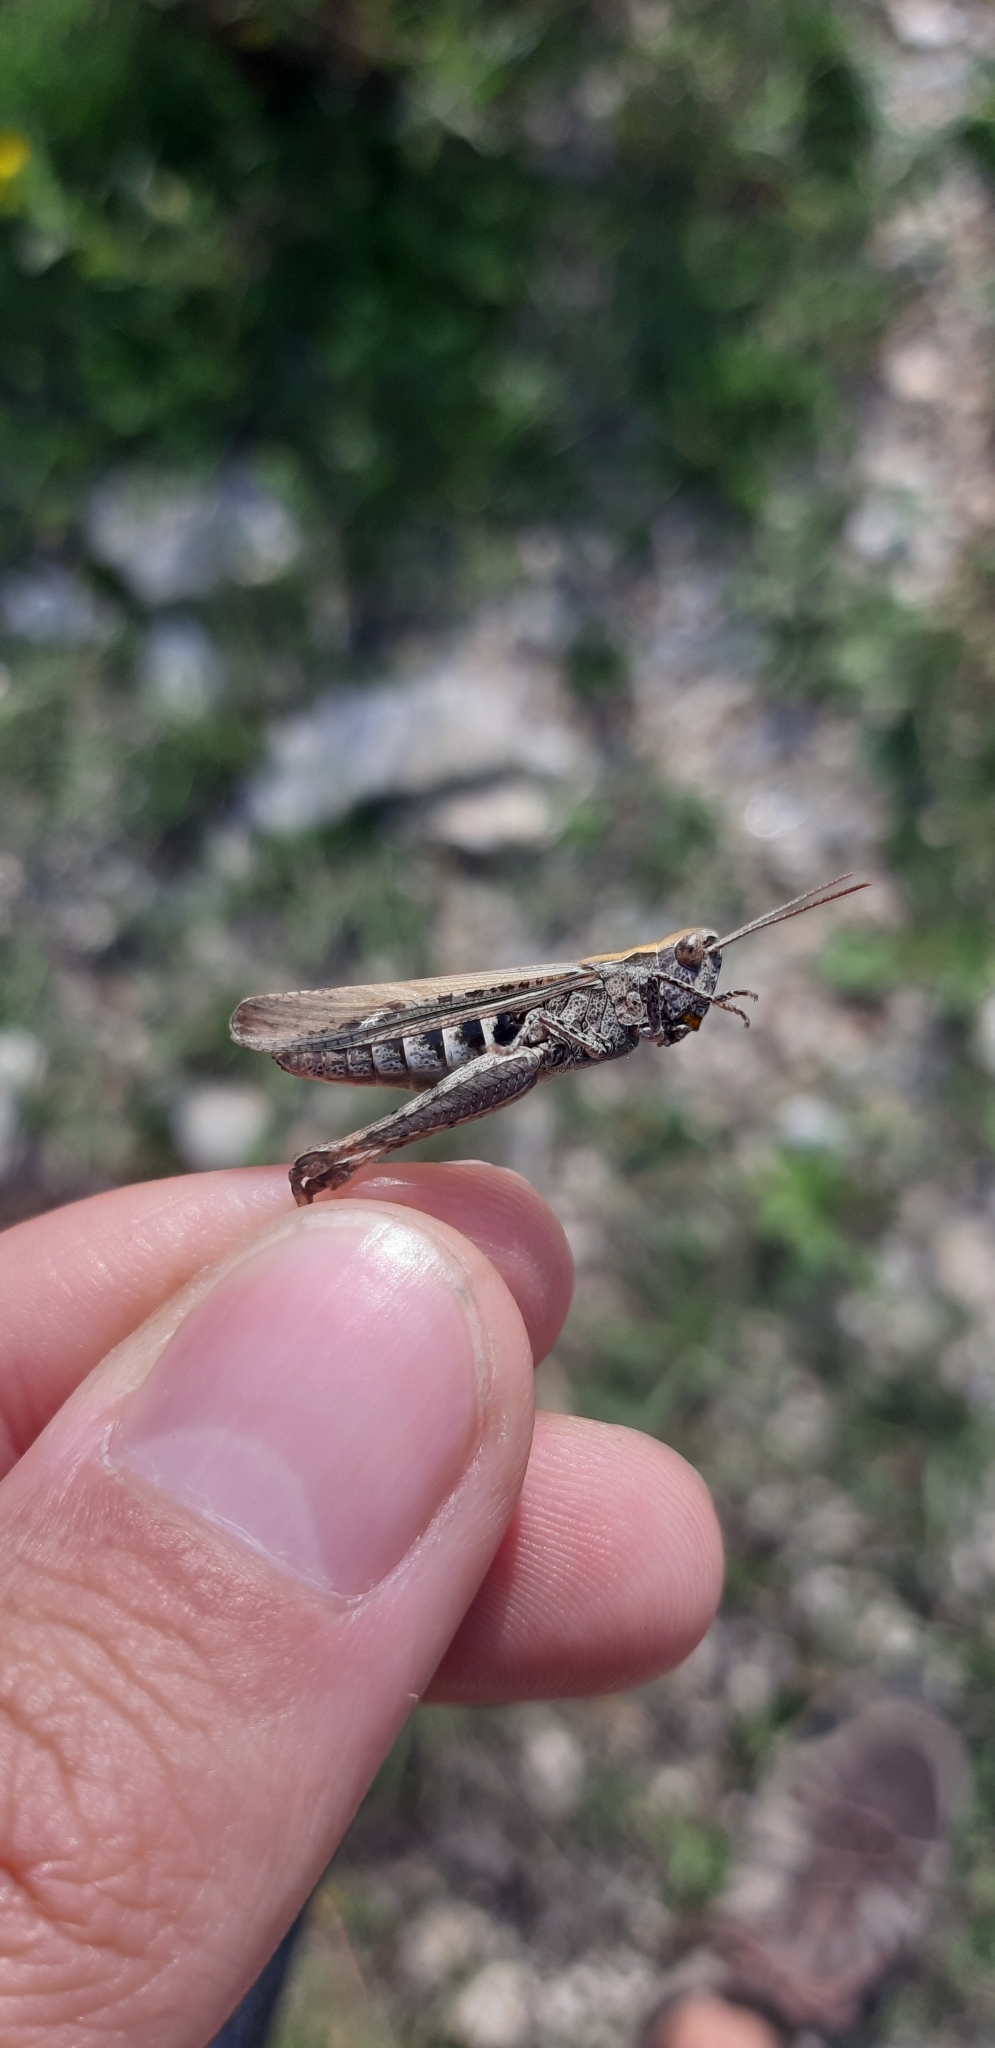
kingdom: Animalia
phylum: Arthropoda
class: Insecta
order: Orthoptera
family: Acrididae
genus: Chorthippus
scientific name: Chorthippus brunneus
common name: Field grasshopper
